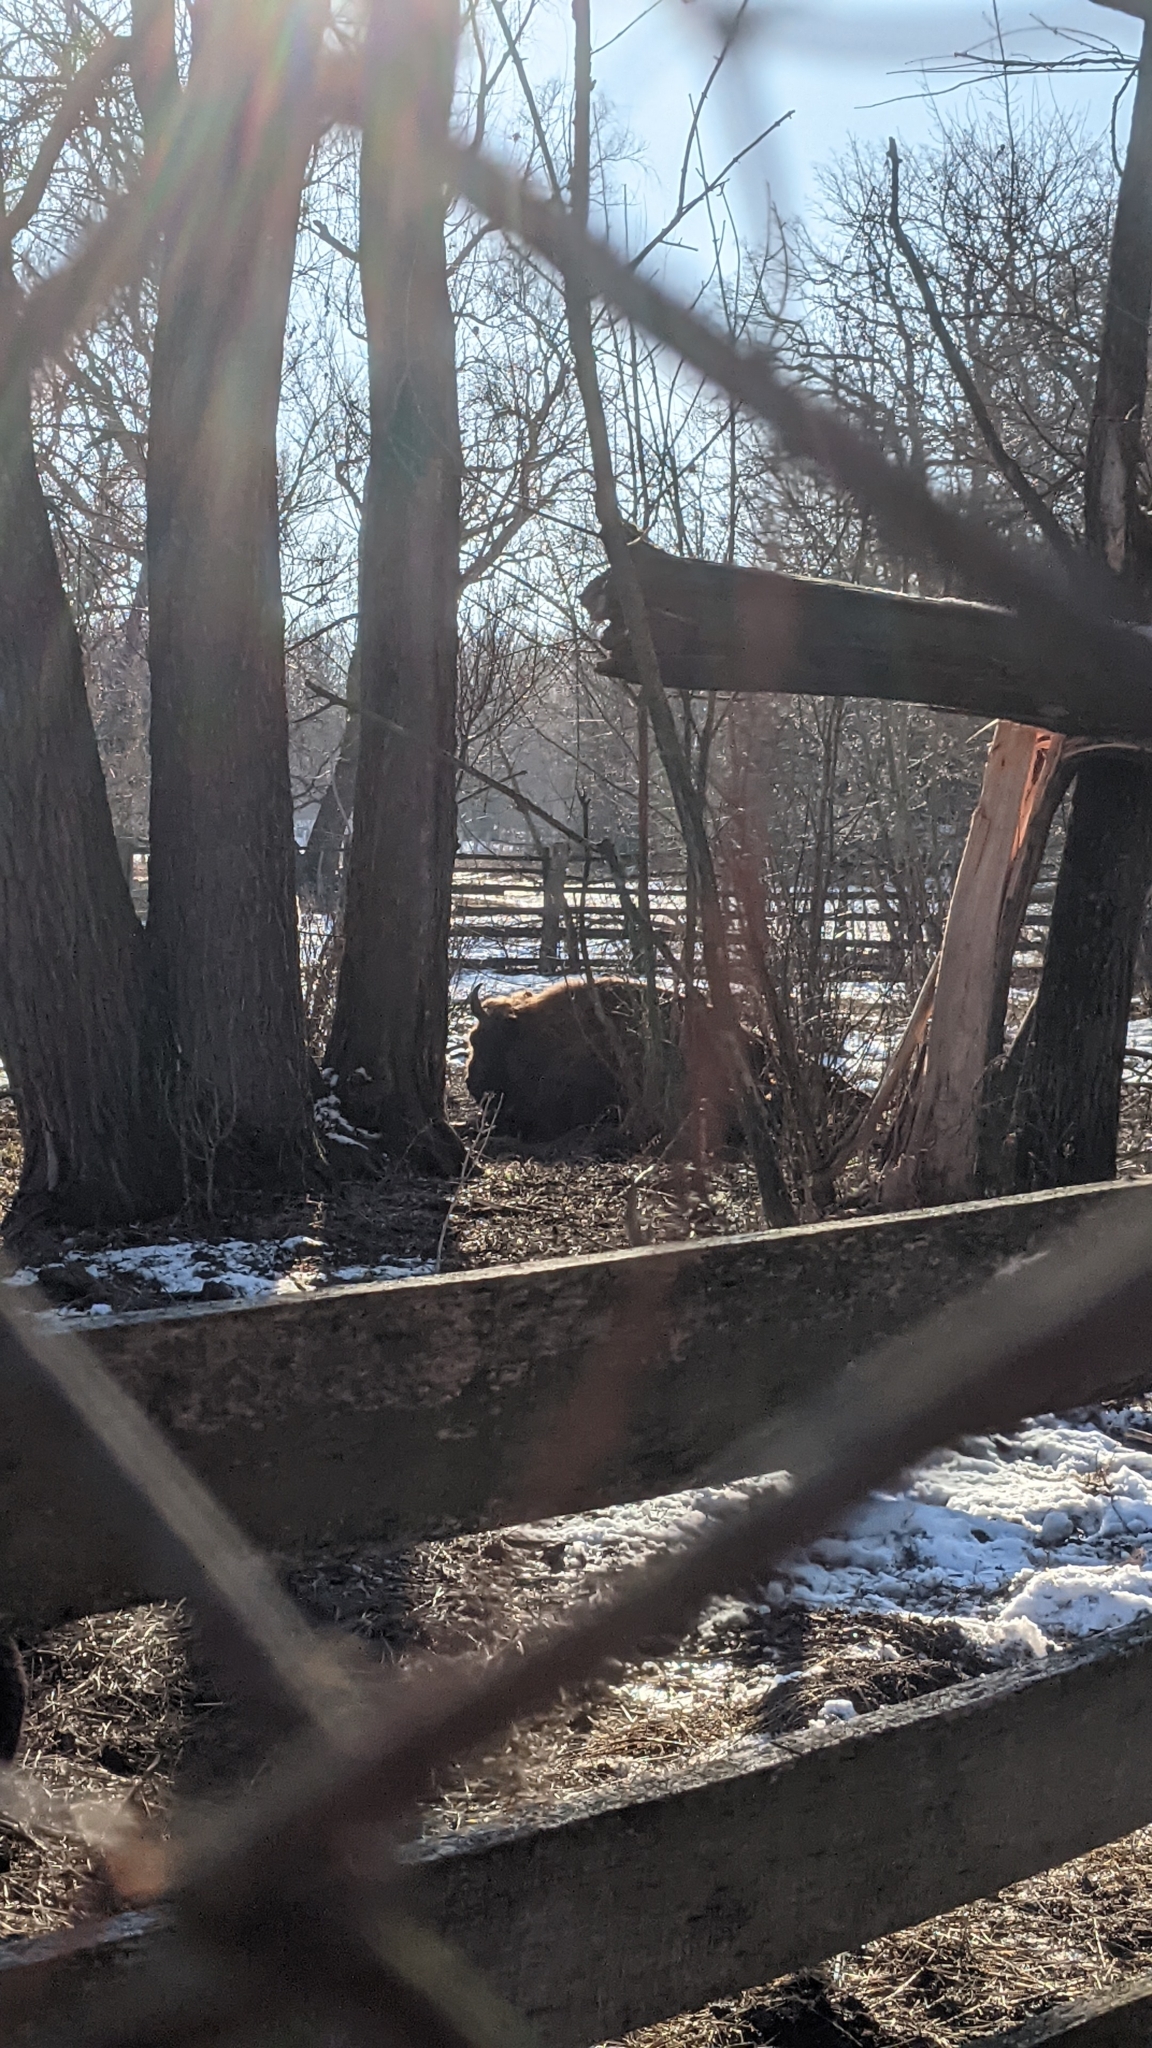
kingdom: Animalia
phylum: Chordata
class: Mammalia
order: Artiodactyla
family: Bovidae
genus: Bison
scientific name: Bison bonasus
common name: European bison
